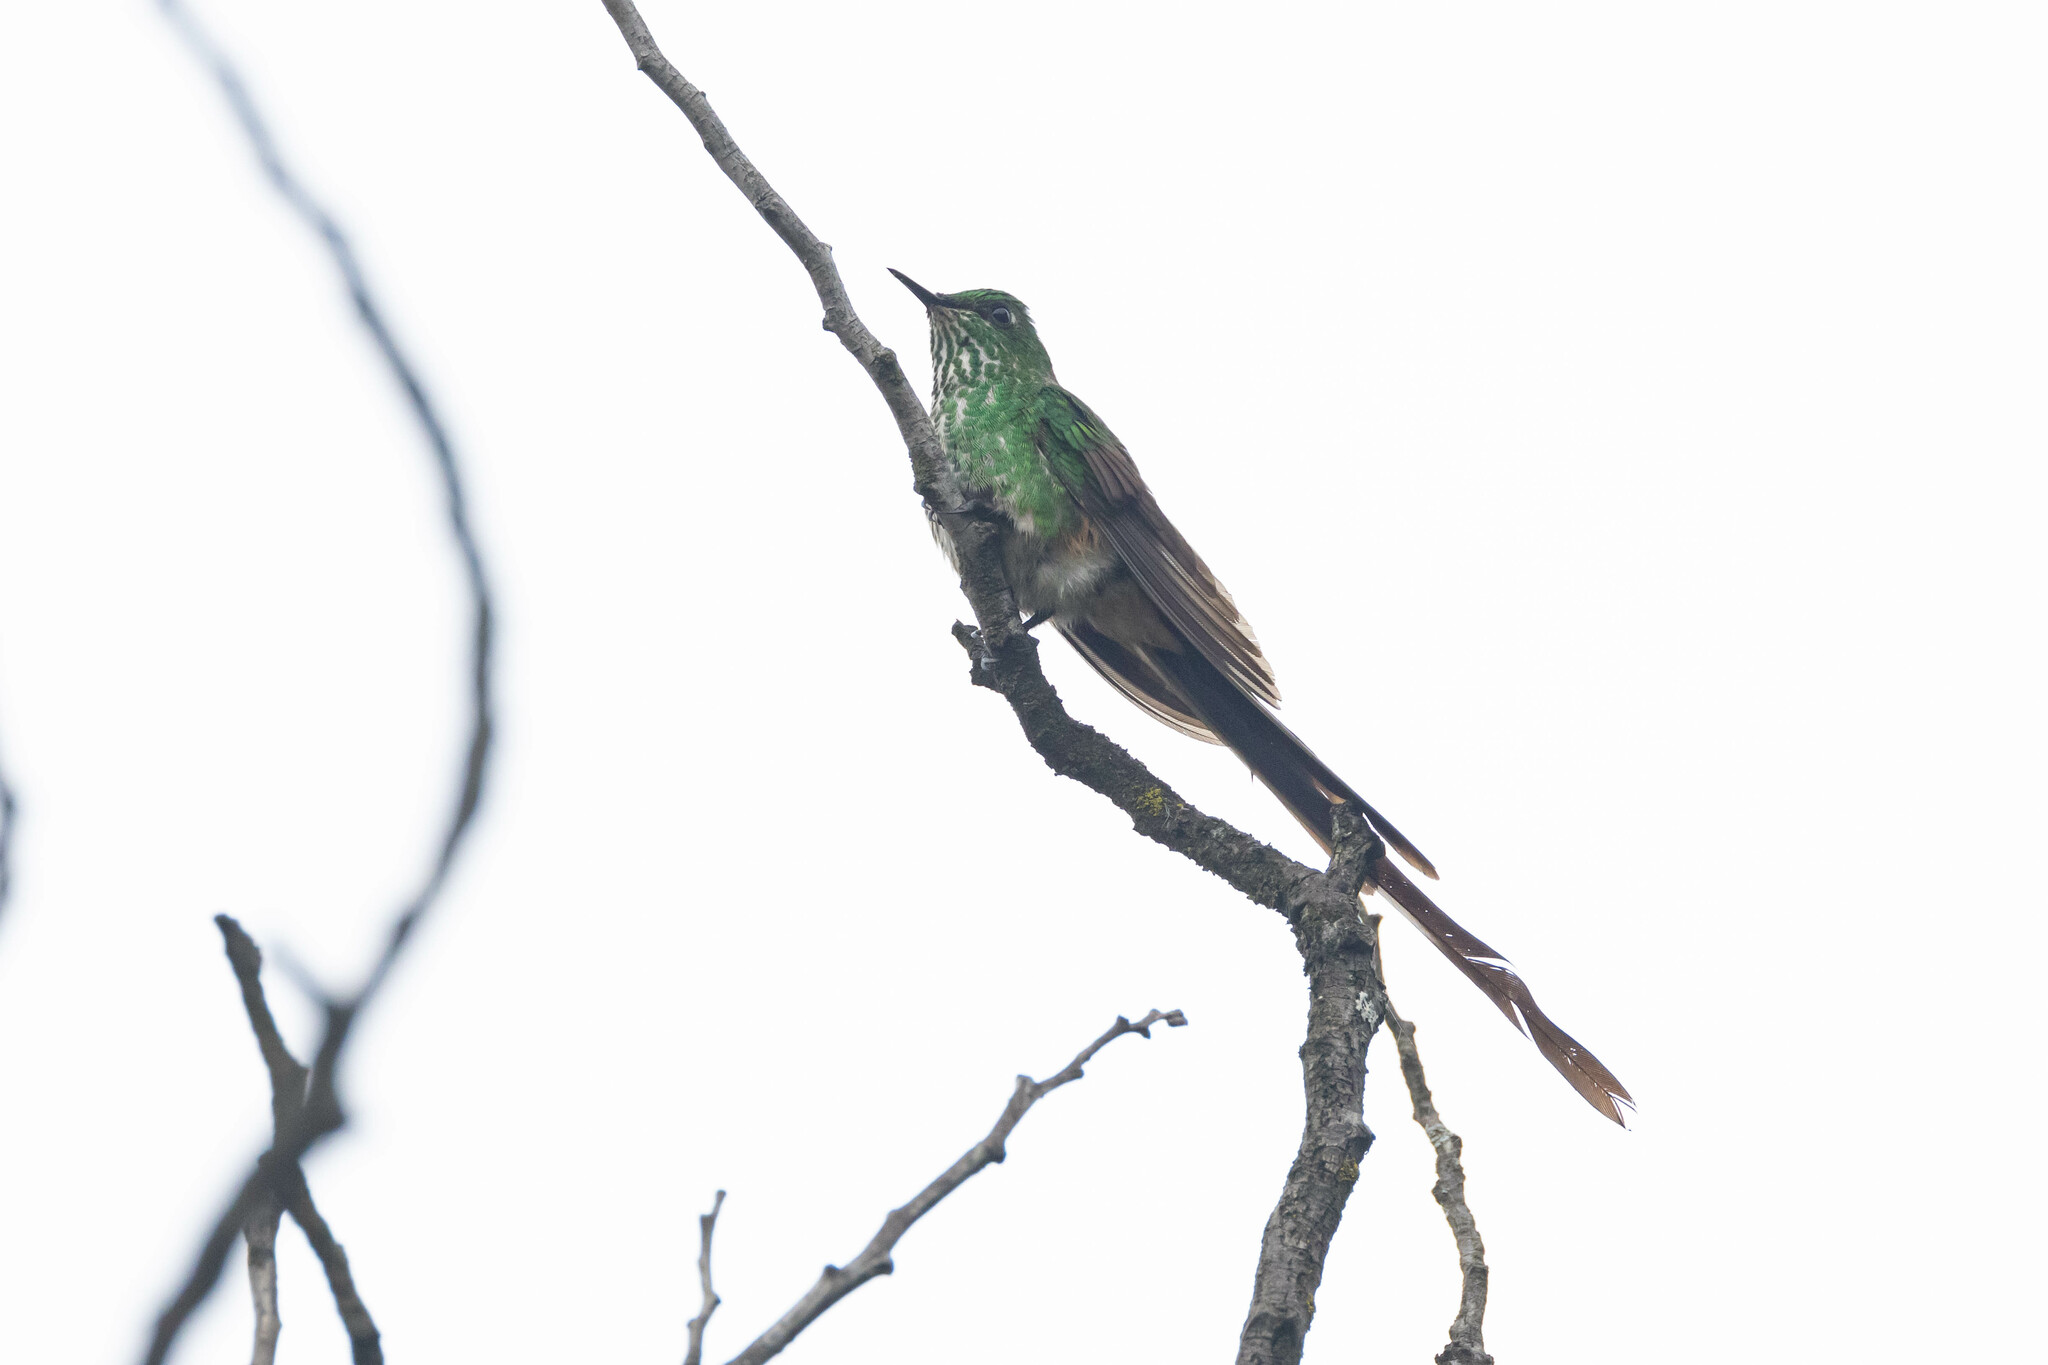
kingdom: Animalia
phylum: Chordata
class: Aves
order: Apodiformes
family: Trochilidae
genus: Lesbia
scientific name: Lesbia nuna
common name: Green-tailed trainbearer
